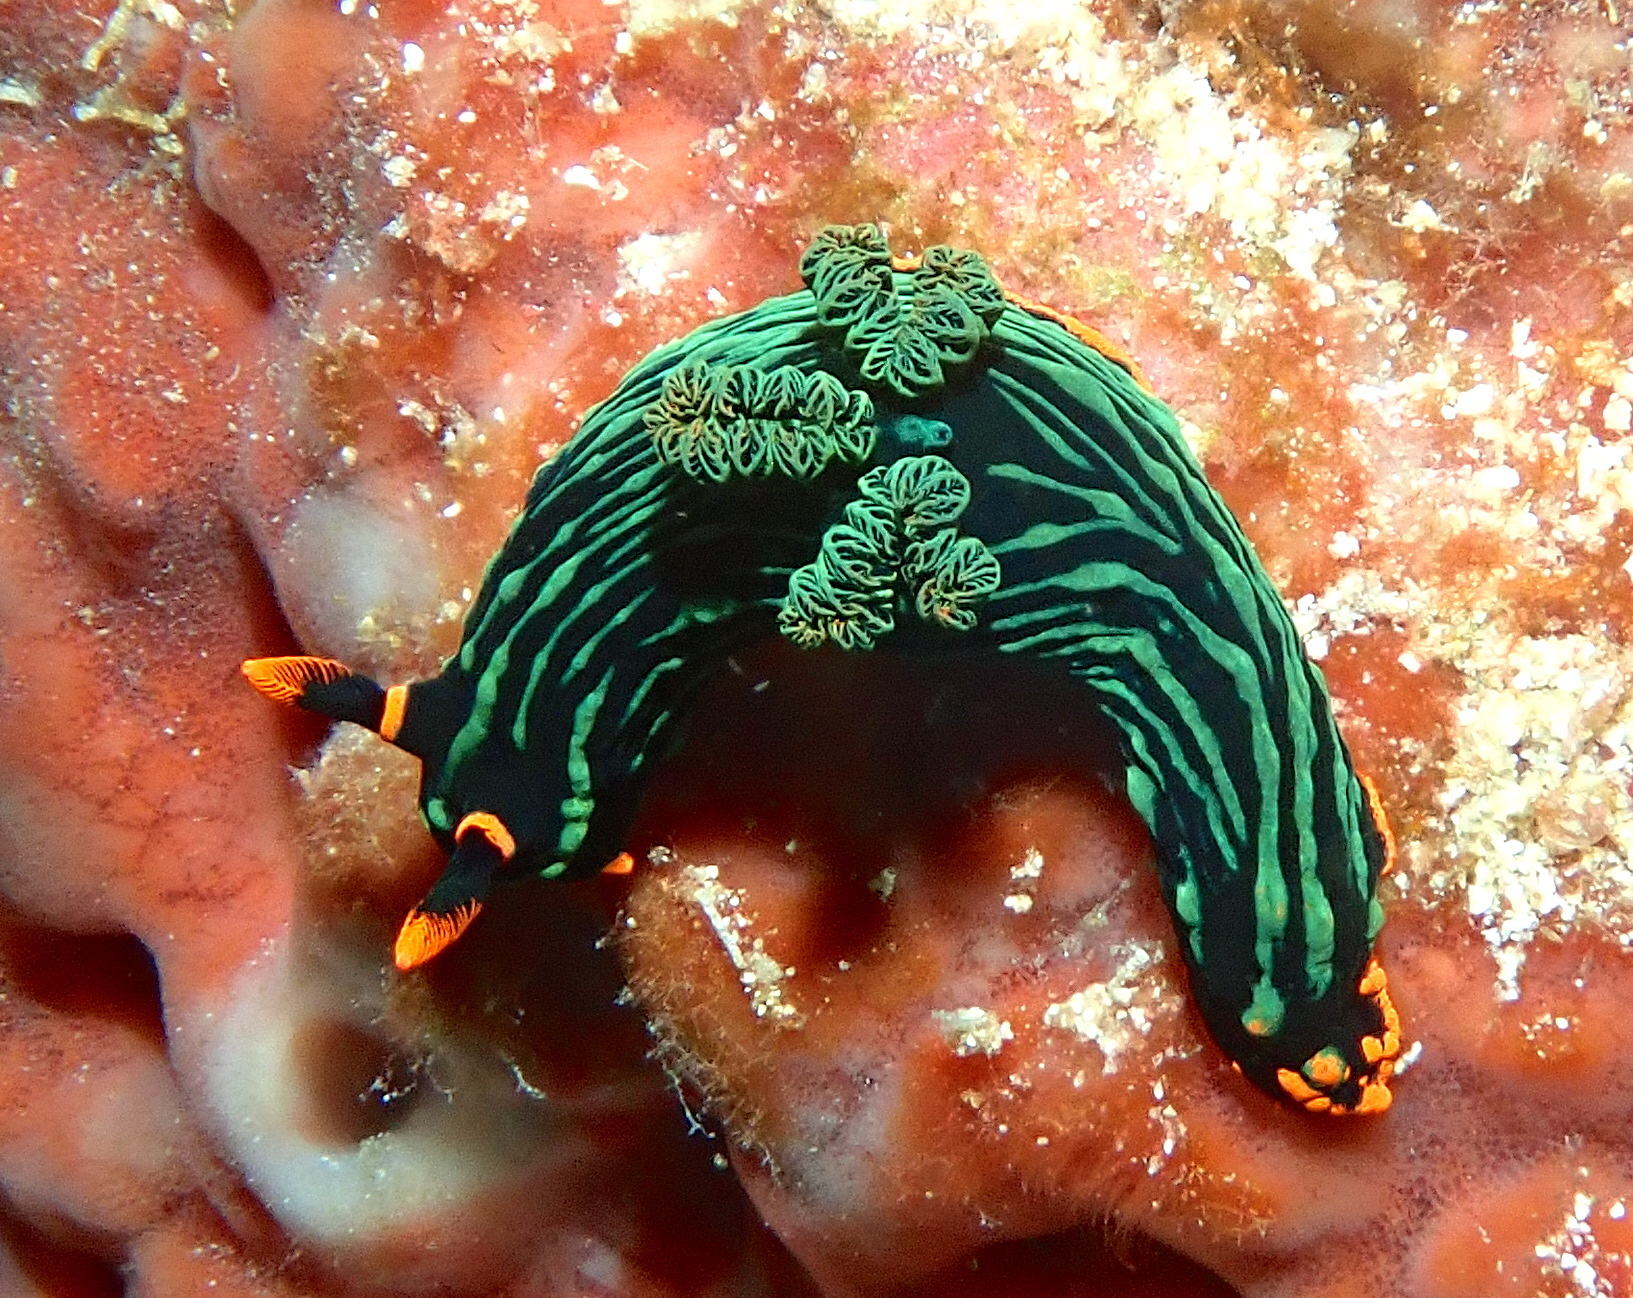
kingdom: Animalia
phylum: Mollusca
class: Gastropoda
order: Nudibranchia
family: Polyceridae
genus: Nembrotha
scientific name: Nembrotha kubaryana
